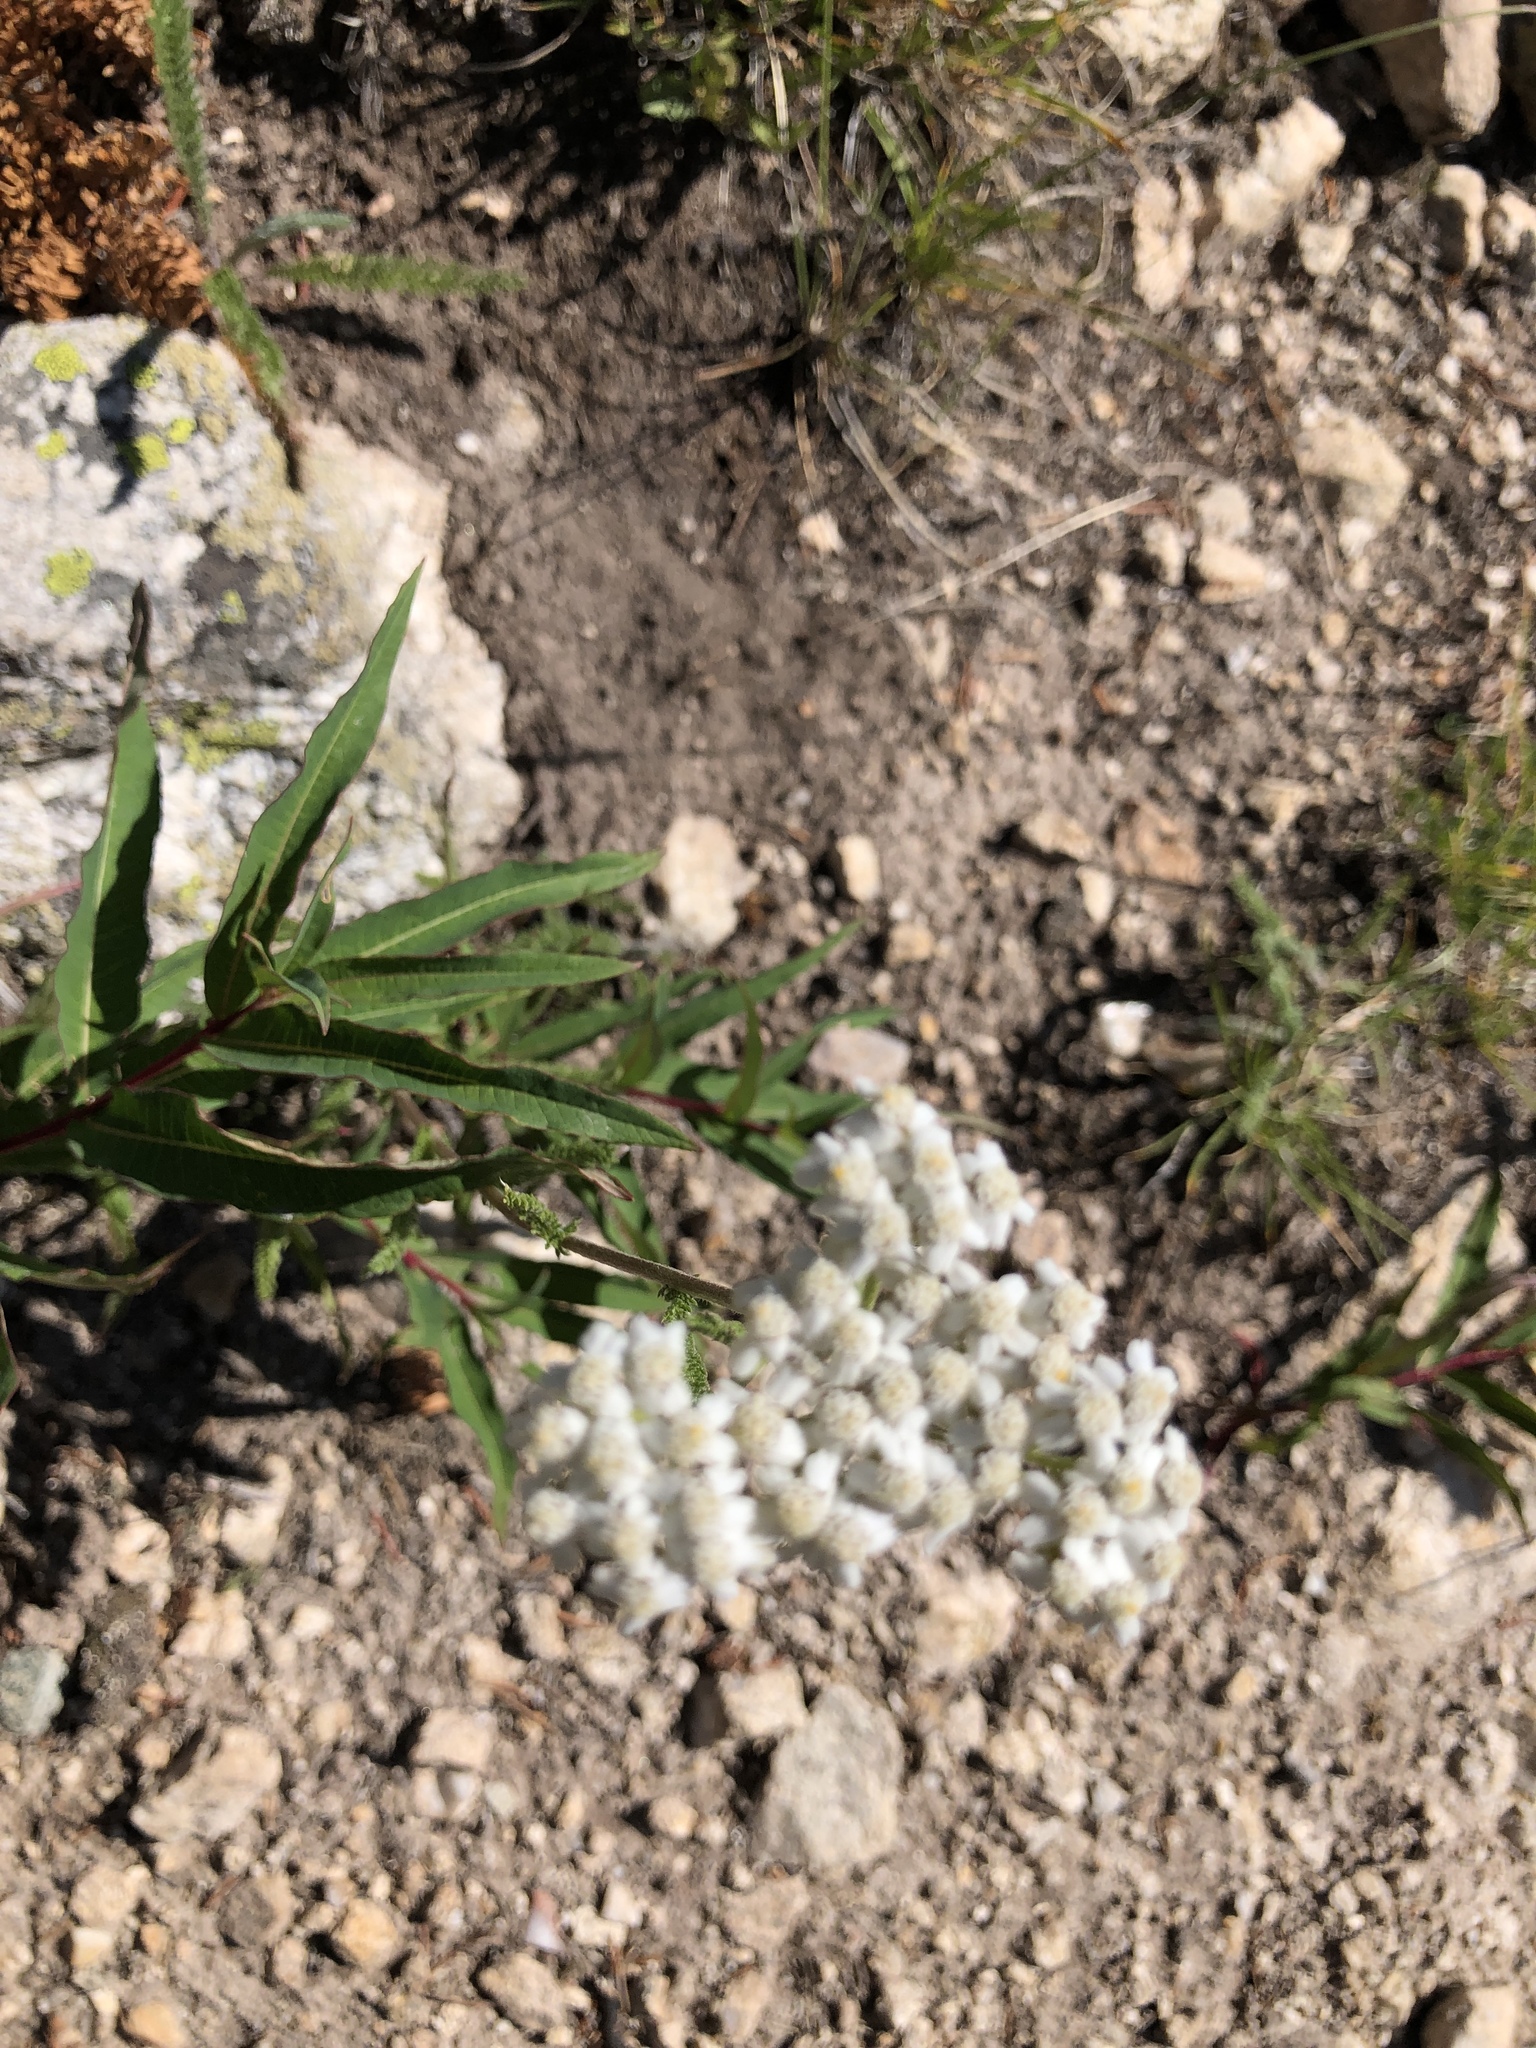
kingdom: Plantae
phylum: Tracheophyta
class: Magnoliopsida
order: Asterales
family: Asteraceae
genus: Achillea
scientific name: Achillea millefolium
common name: Yarrow
